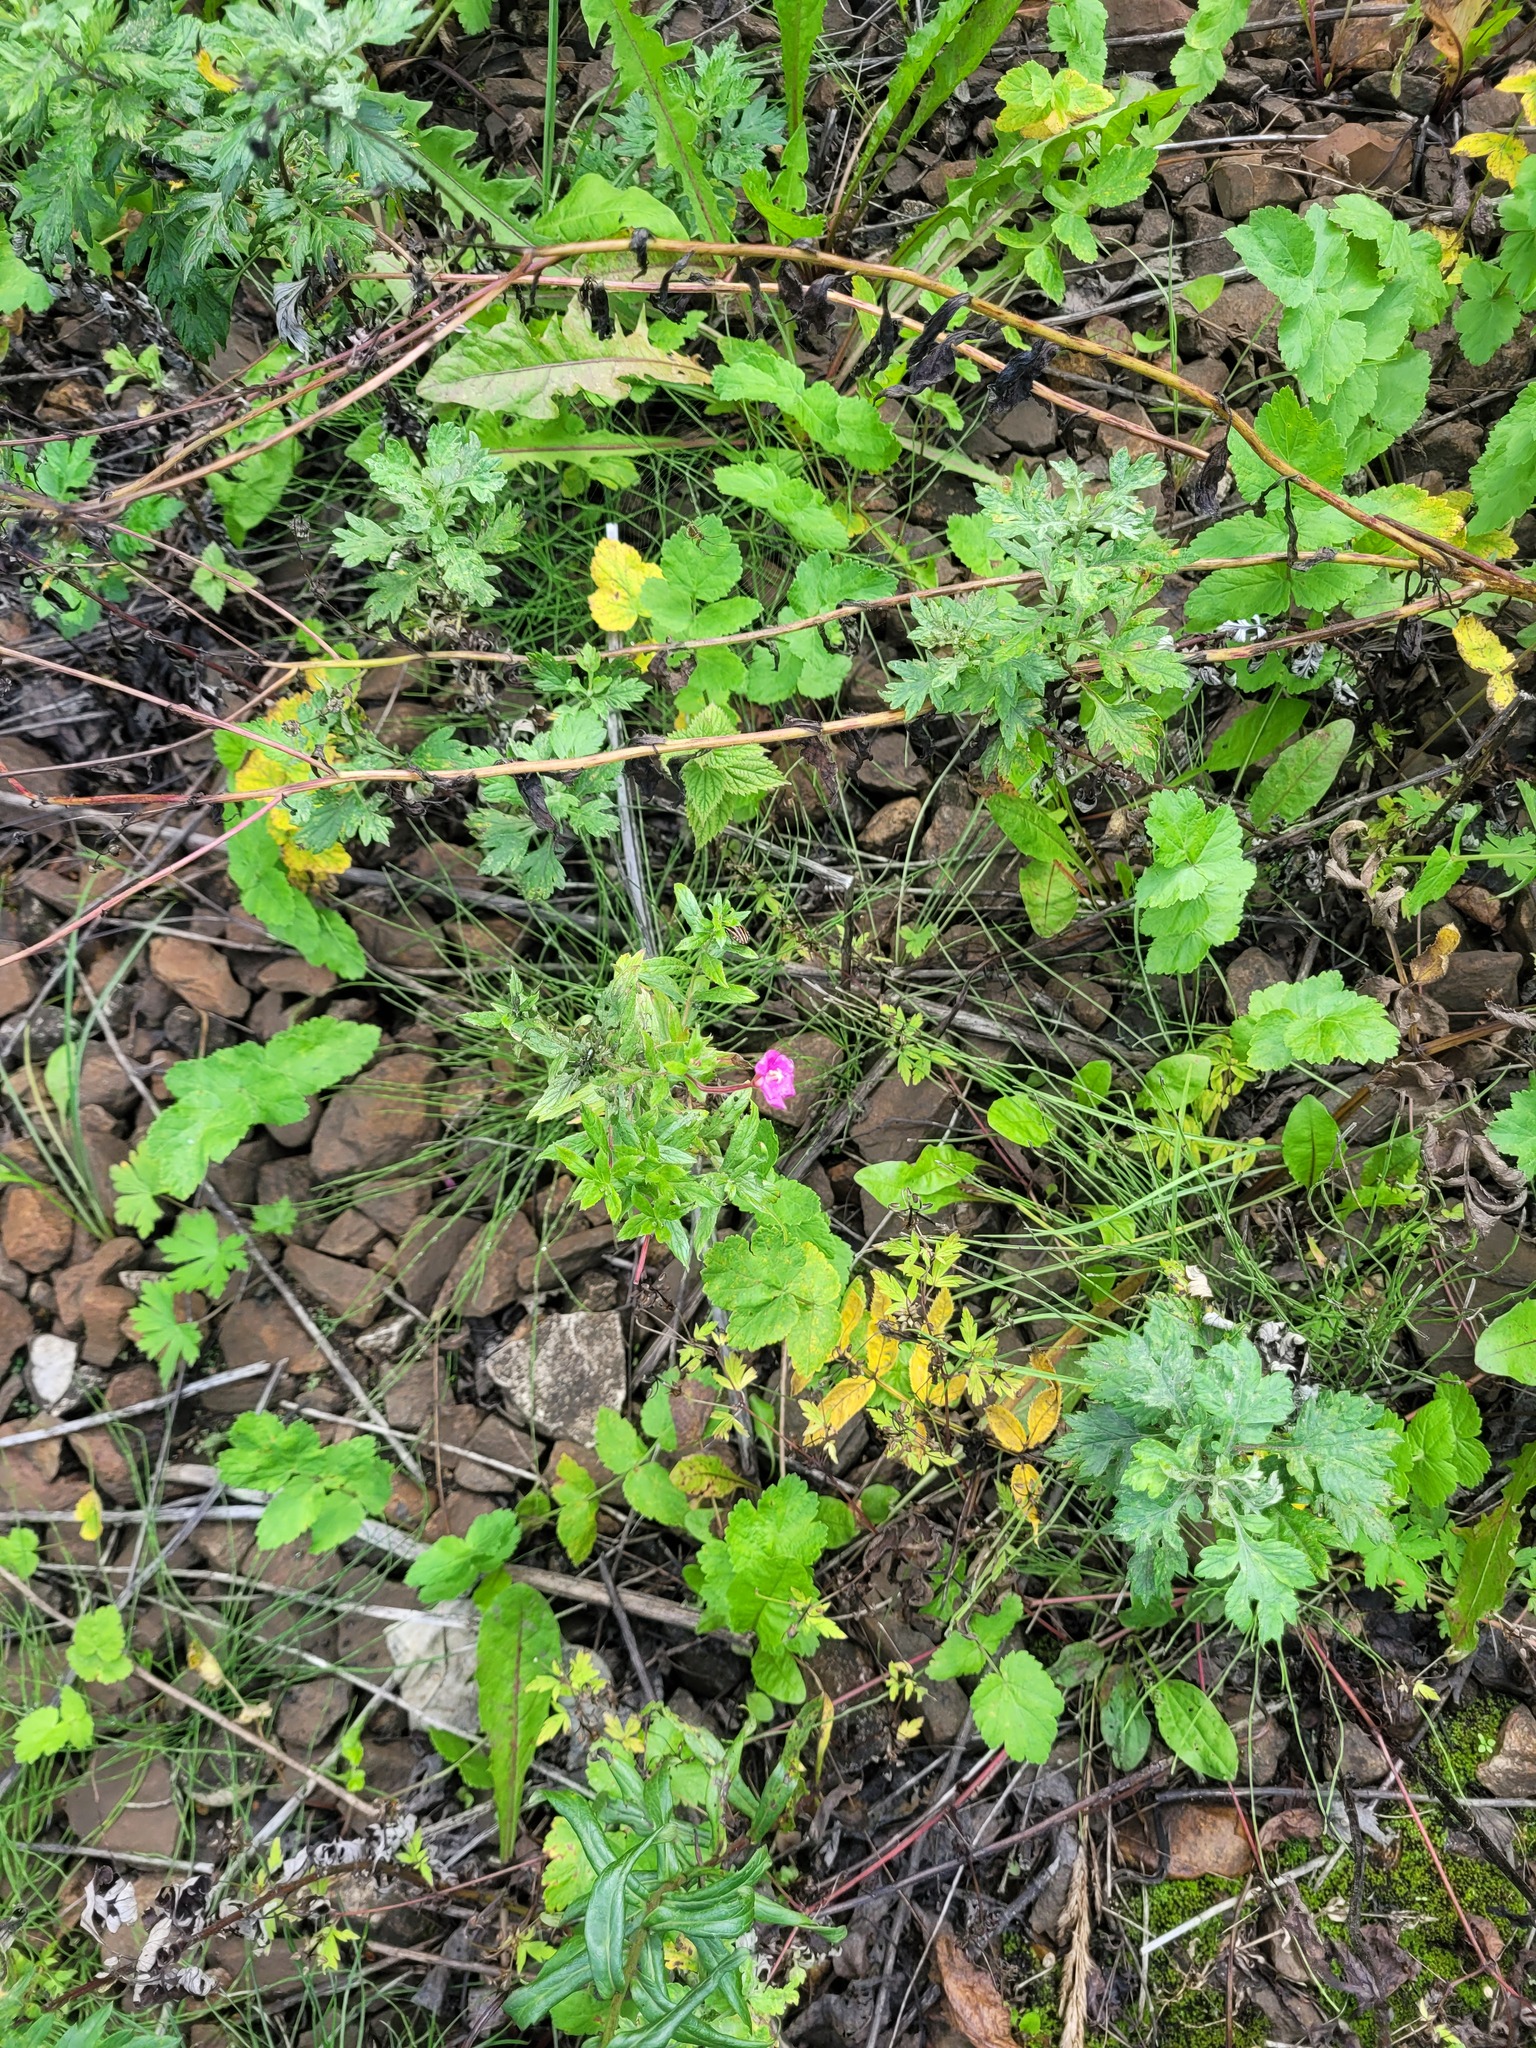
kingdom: Plantae
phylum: Tracheophyta
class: Magnoliopsida
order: Myrtales
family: Onagraceae
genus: Epilobium
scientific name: Epilobium hirsutum
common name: Great willowherb
